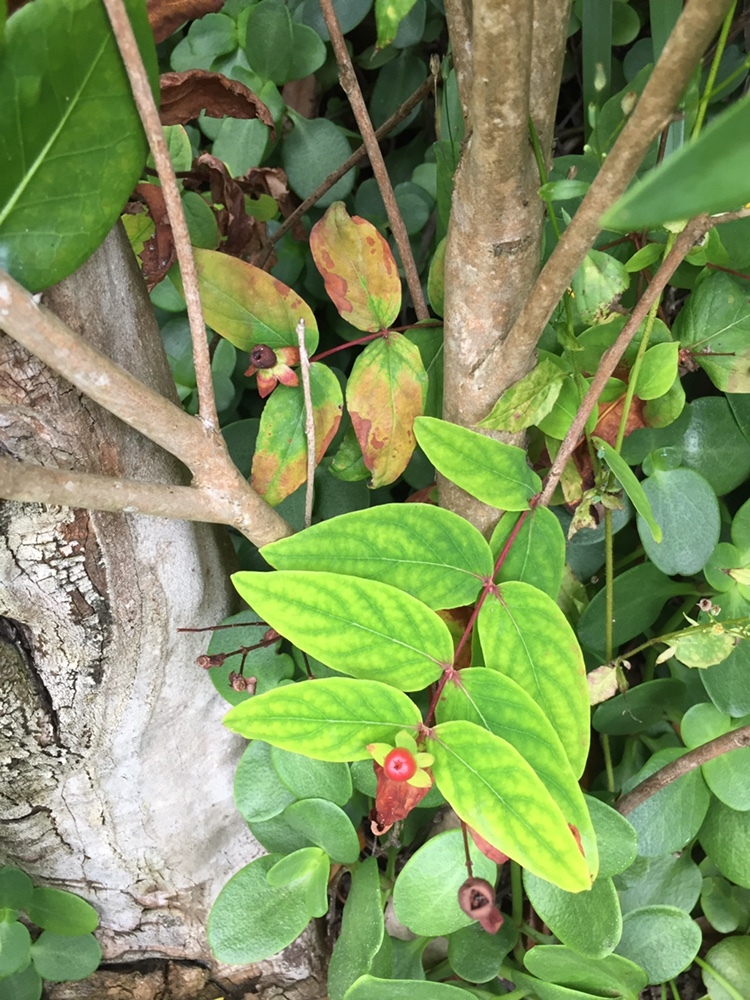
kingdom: Plantae
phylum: Tracheophyta
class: Magnoliopsida
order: Malpighiales
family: Hypericaceae
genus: Hypericum
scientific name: Hypericum androsaemum
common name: Sweet-amber
